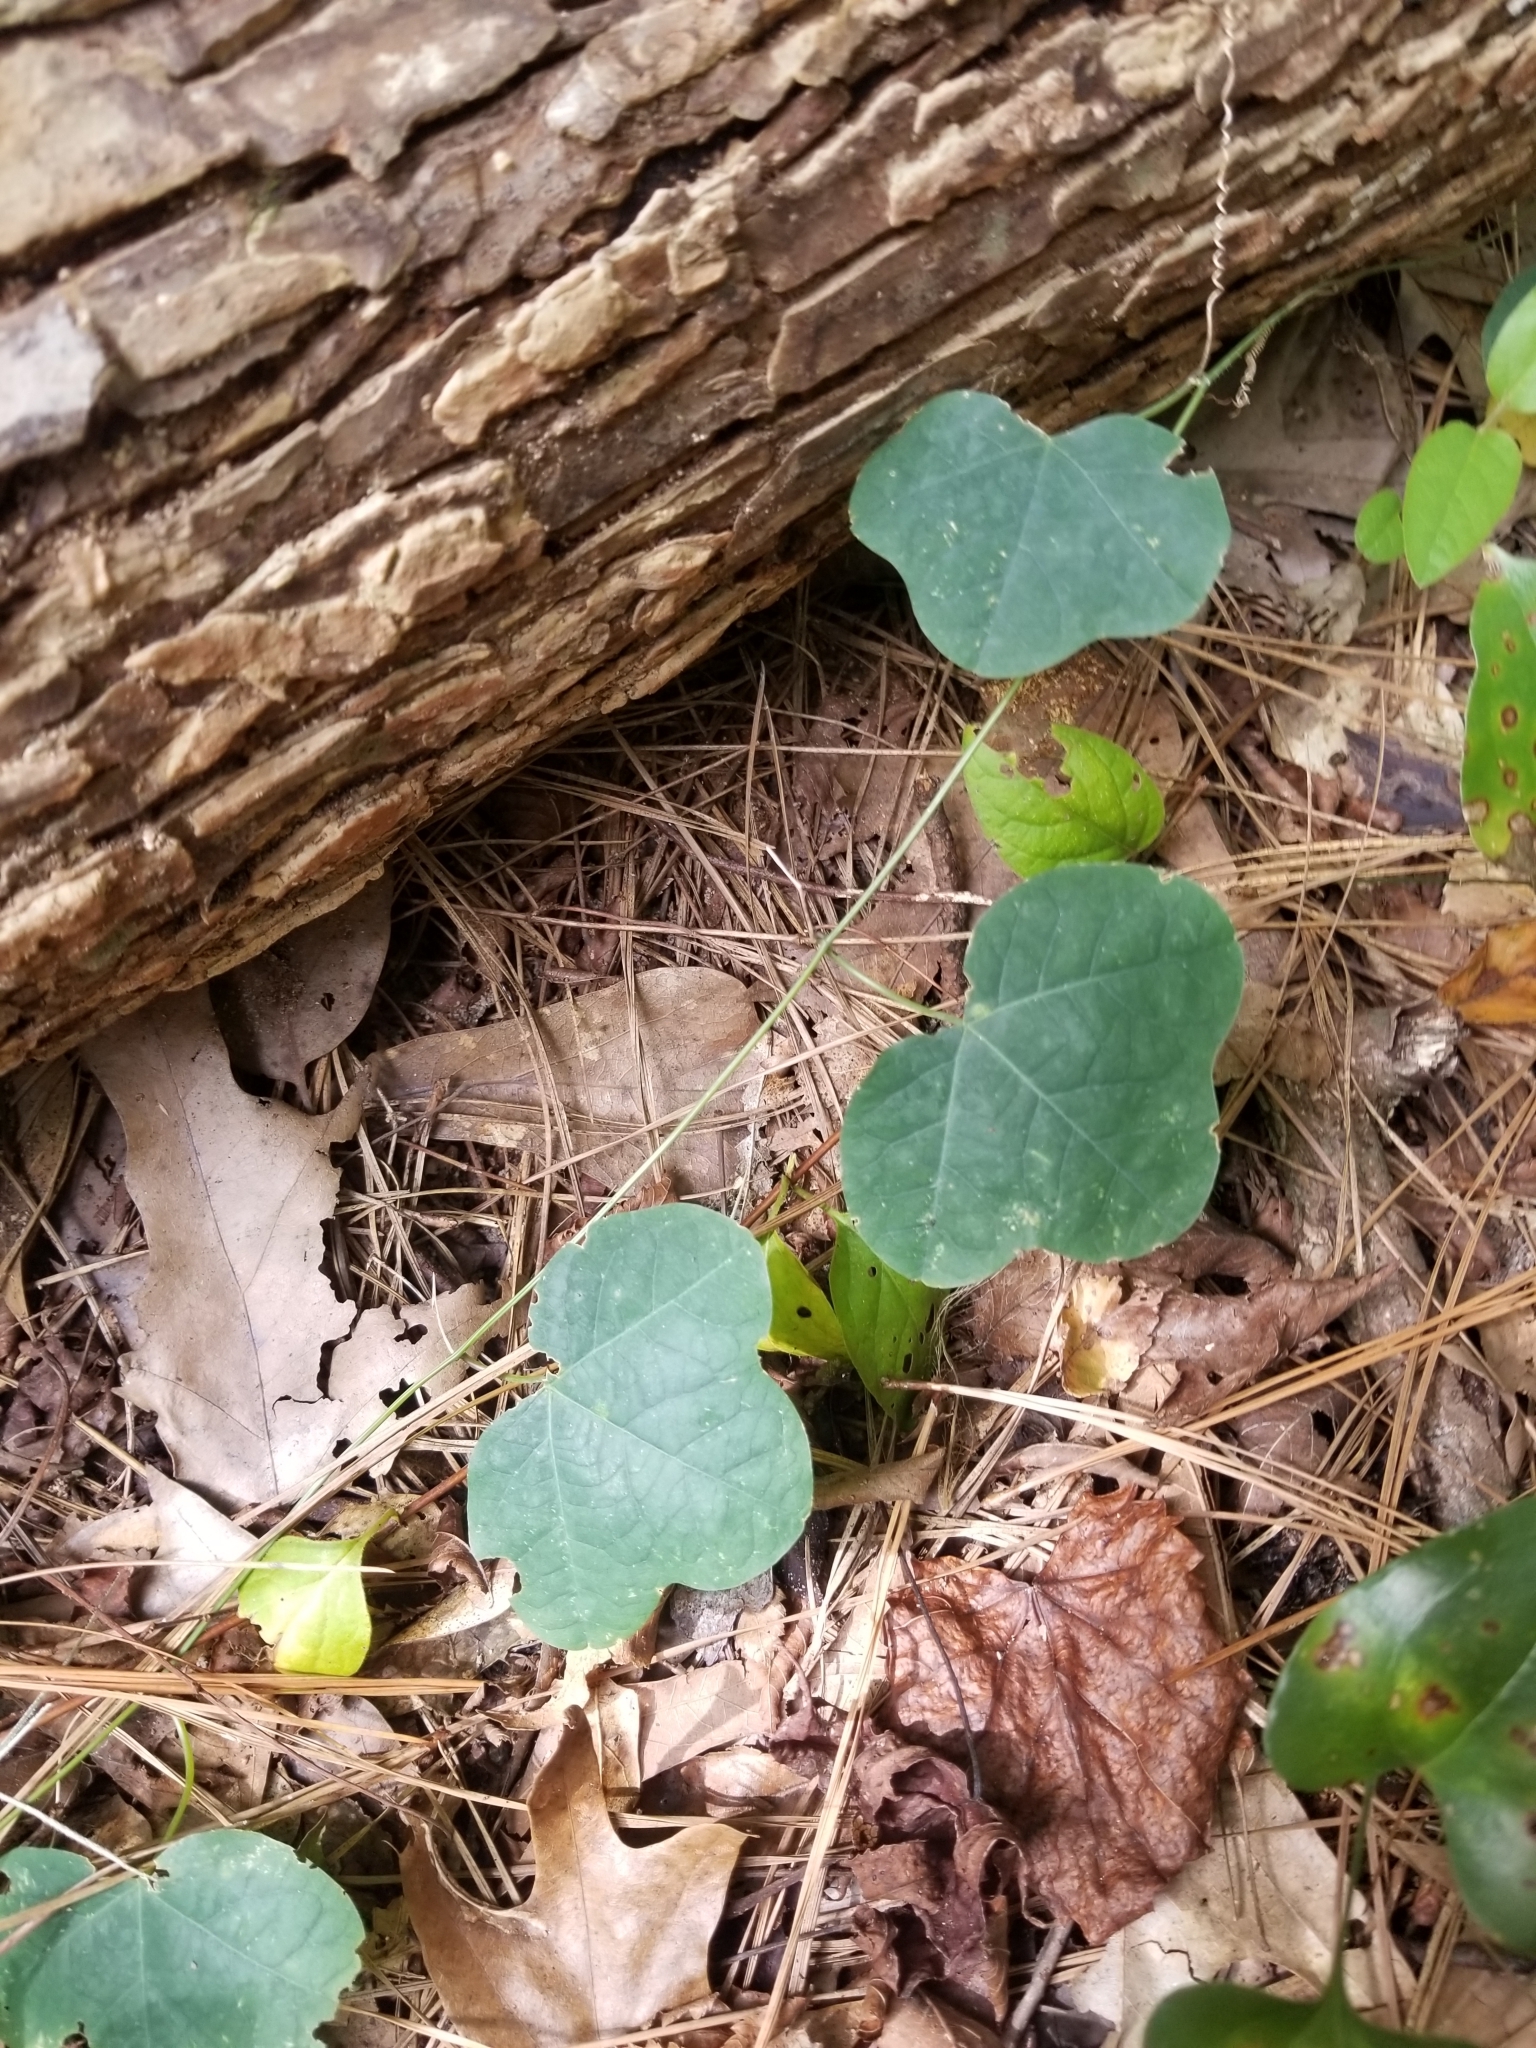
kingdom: Plantae
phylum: Tracheophyta
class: Magnoliopsida
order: Malpighiales
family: Passifloraceae
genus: Passiflora
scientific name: Passiflora lutea
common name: Yellow passionflower
